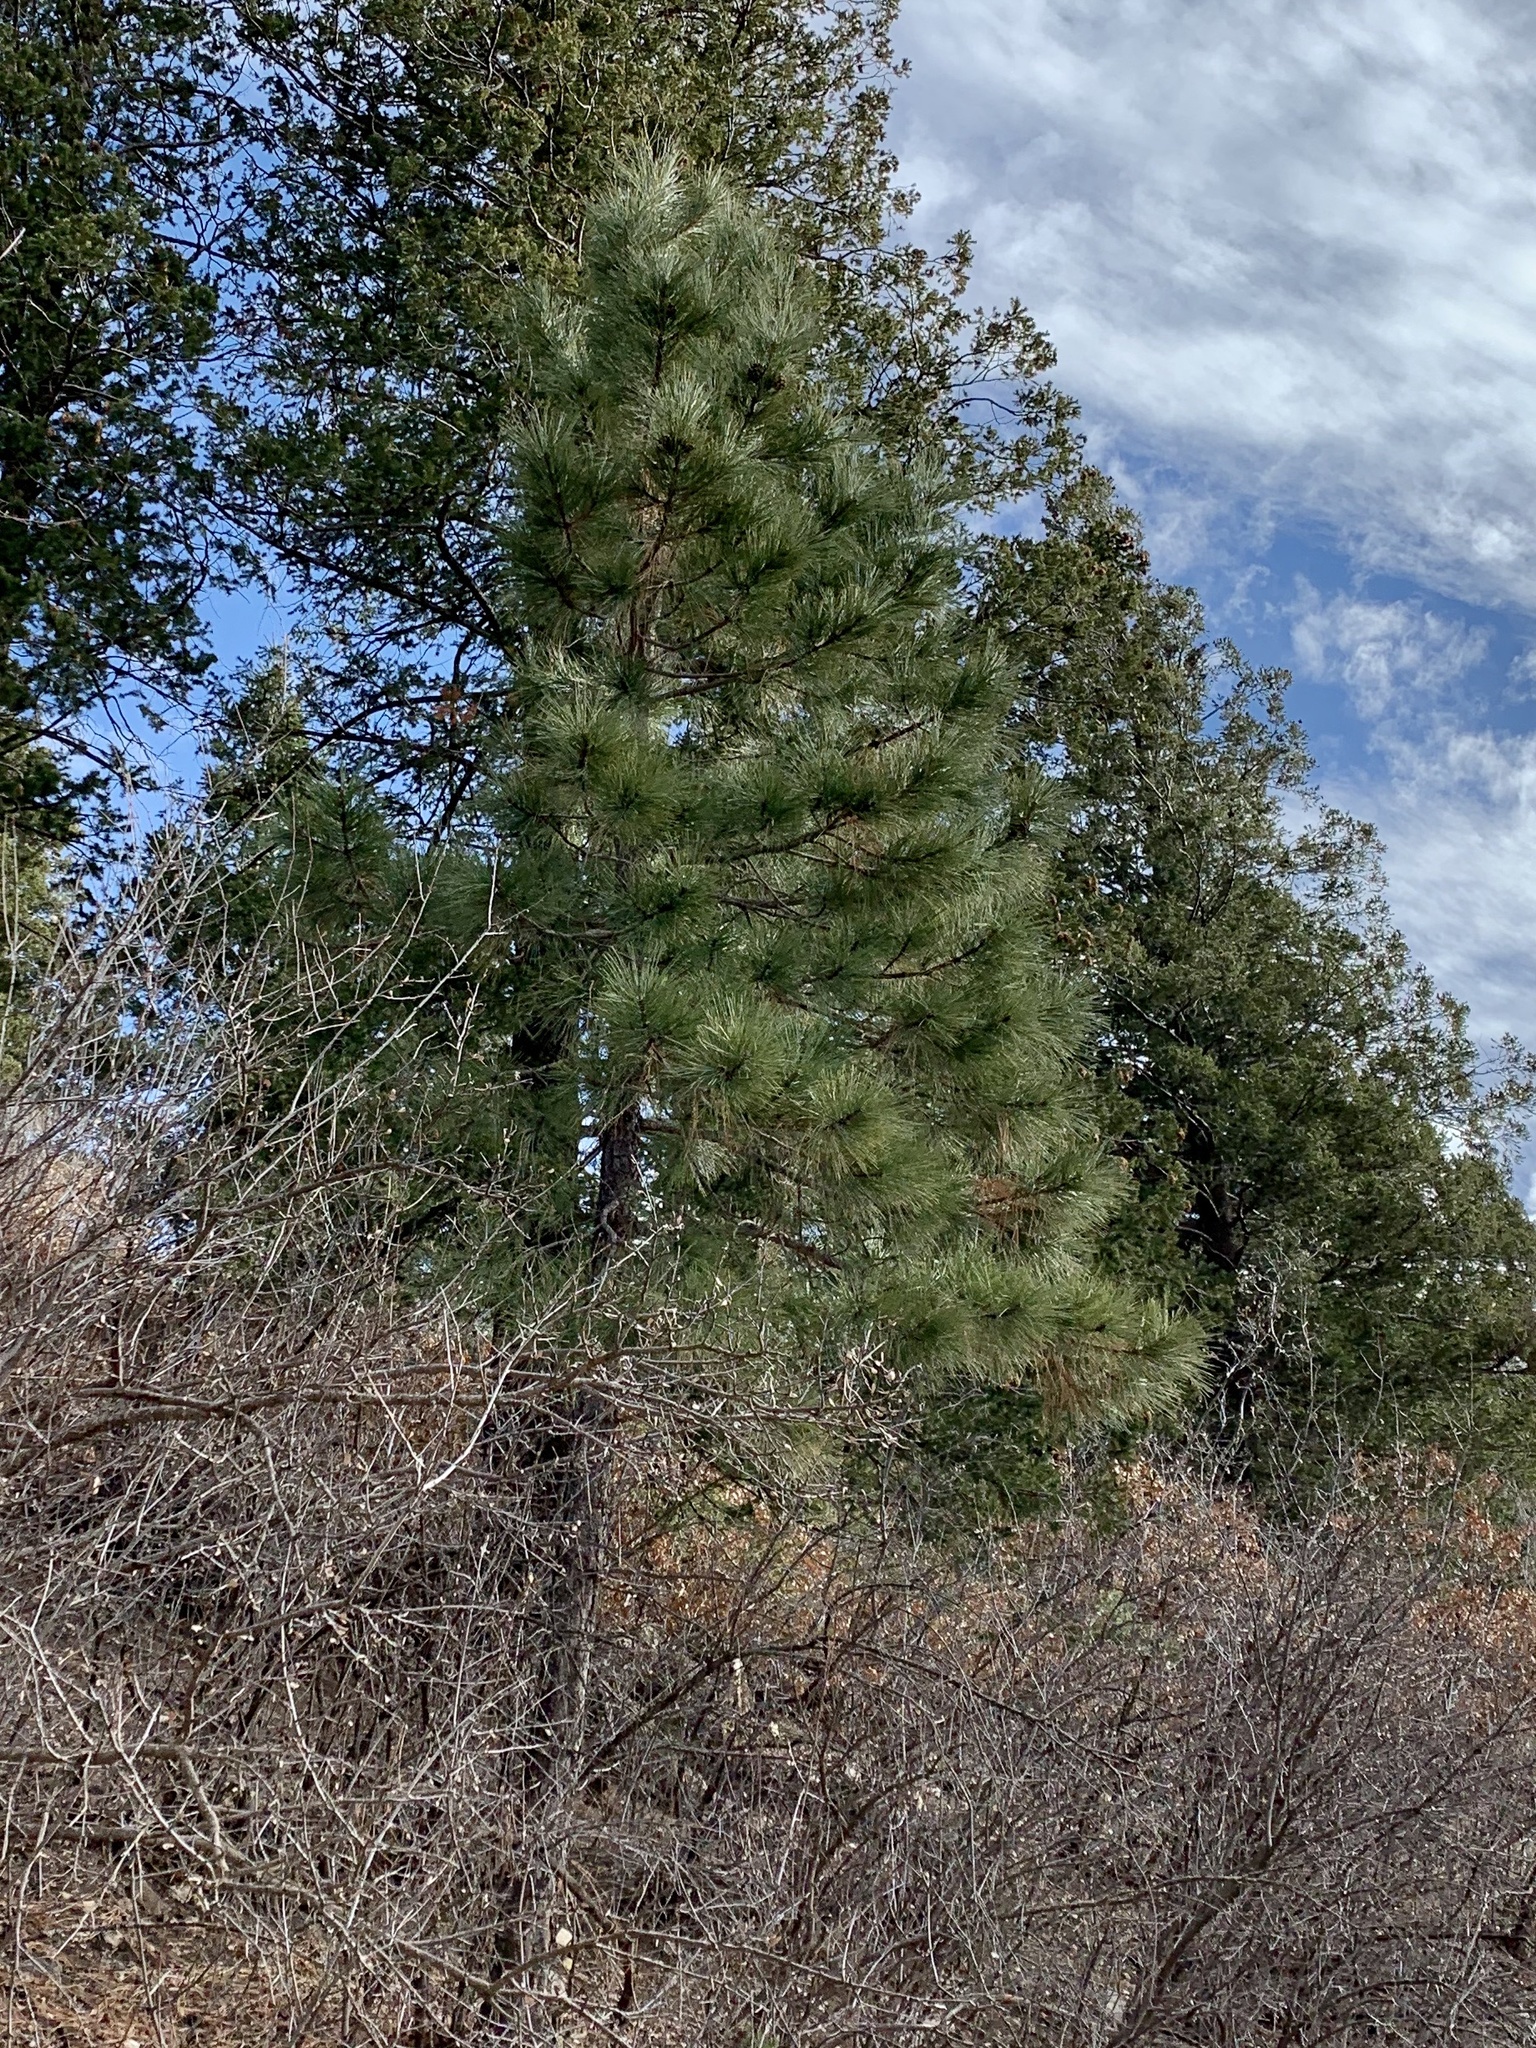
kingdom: Plantae
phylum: Tracheophyta
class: Pinopsida
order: Pinales
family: Pinaceae
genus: Pinus
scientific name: Pinus ponderosa
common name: Western yellow-pine
